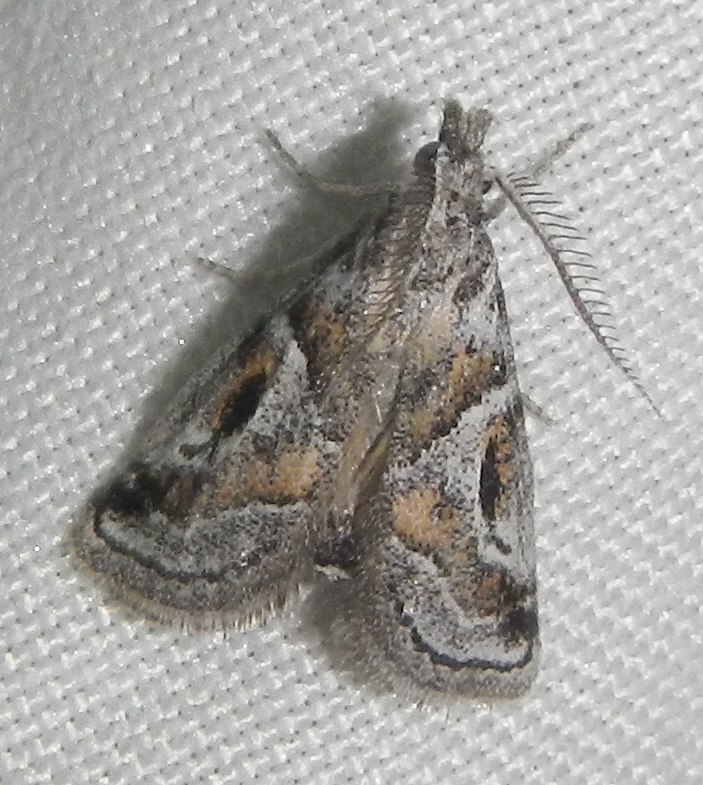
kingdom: Animalia
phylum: Arthropoda
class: Insecta
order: Lepidoptera
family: Pyralidae
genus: Alpheias
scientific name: Alpheias Decaturia pectinalis
